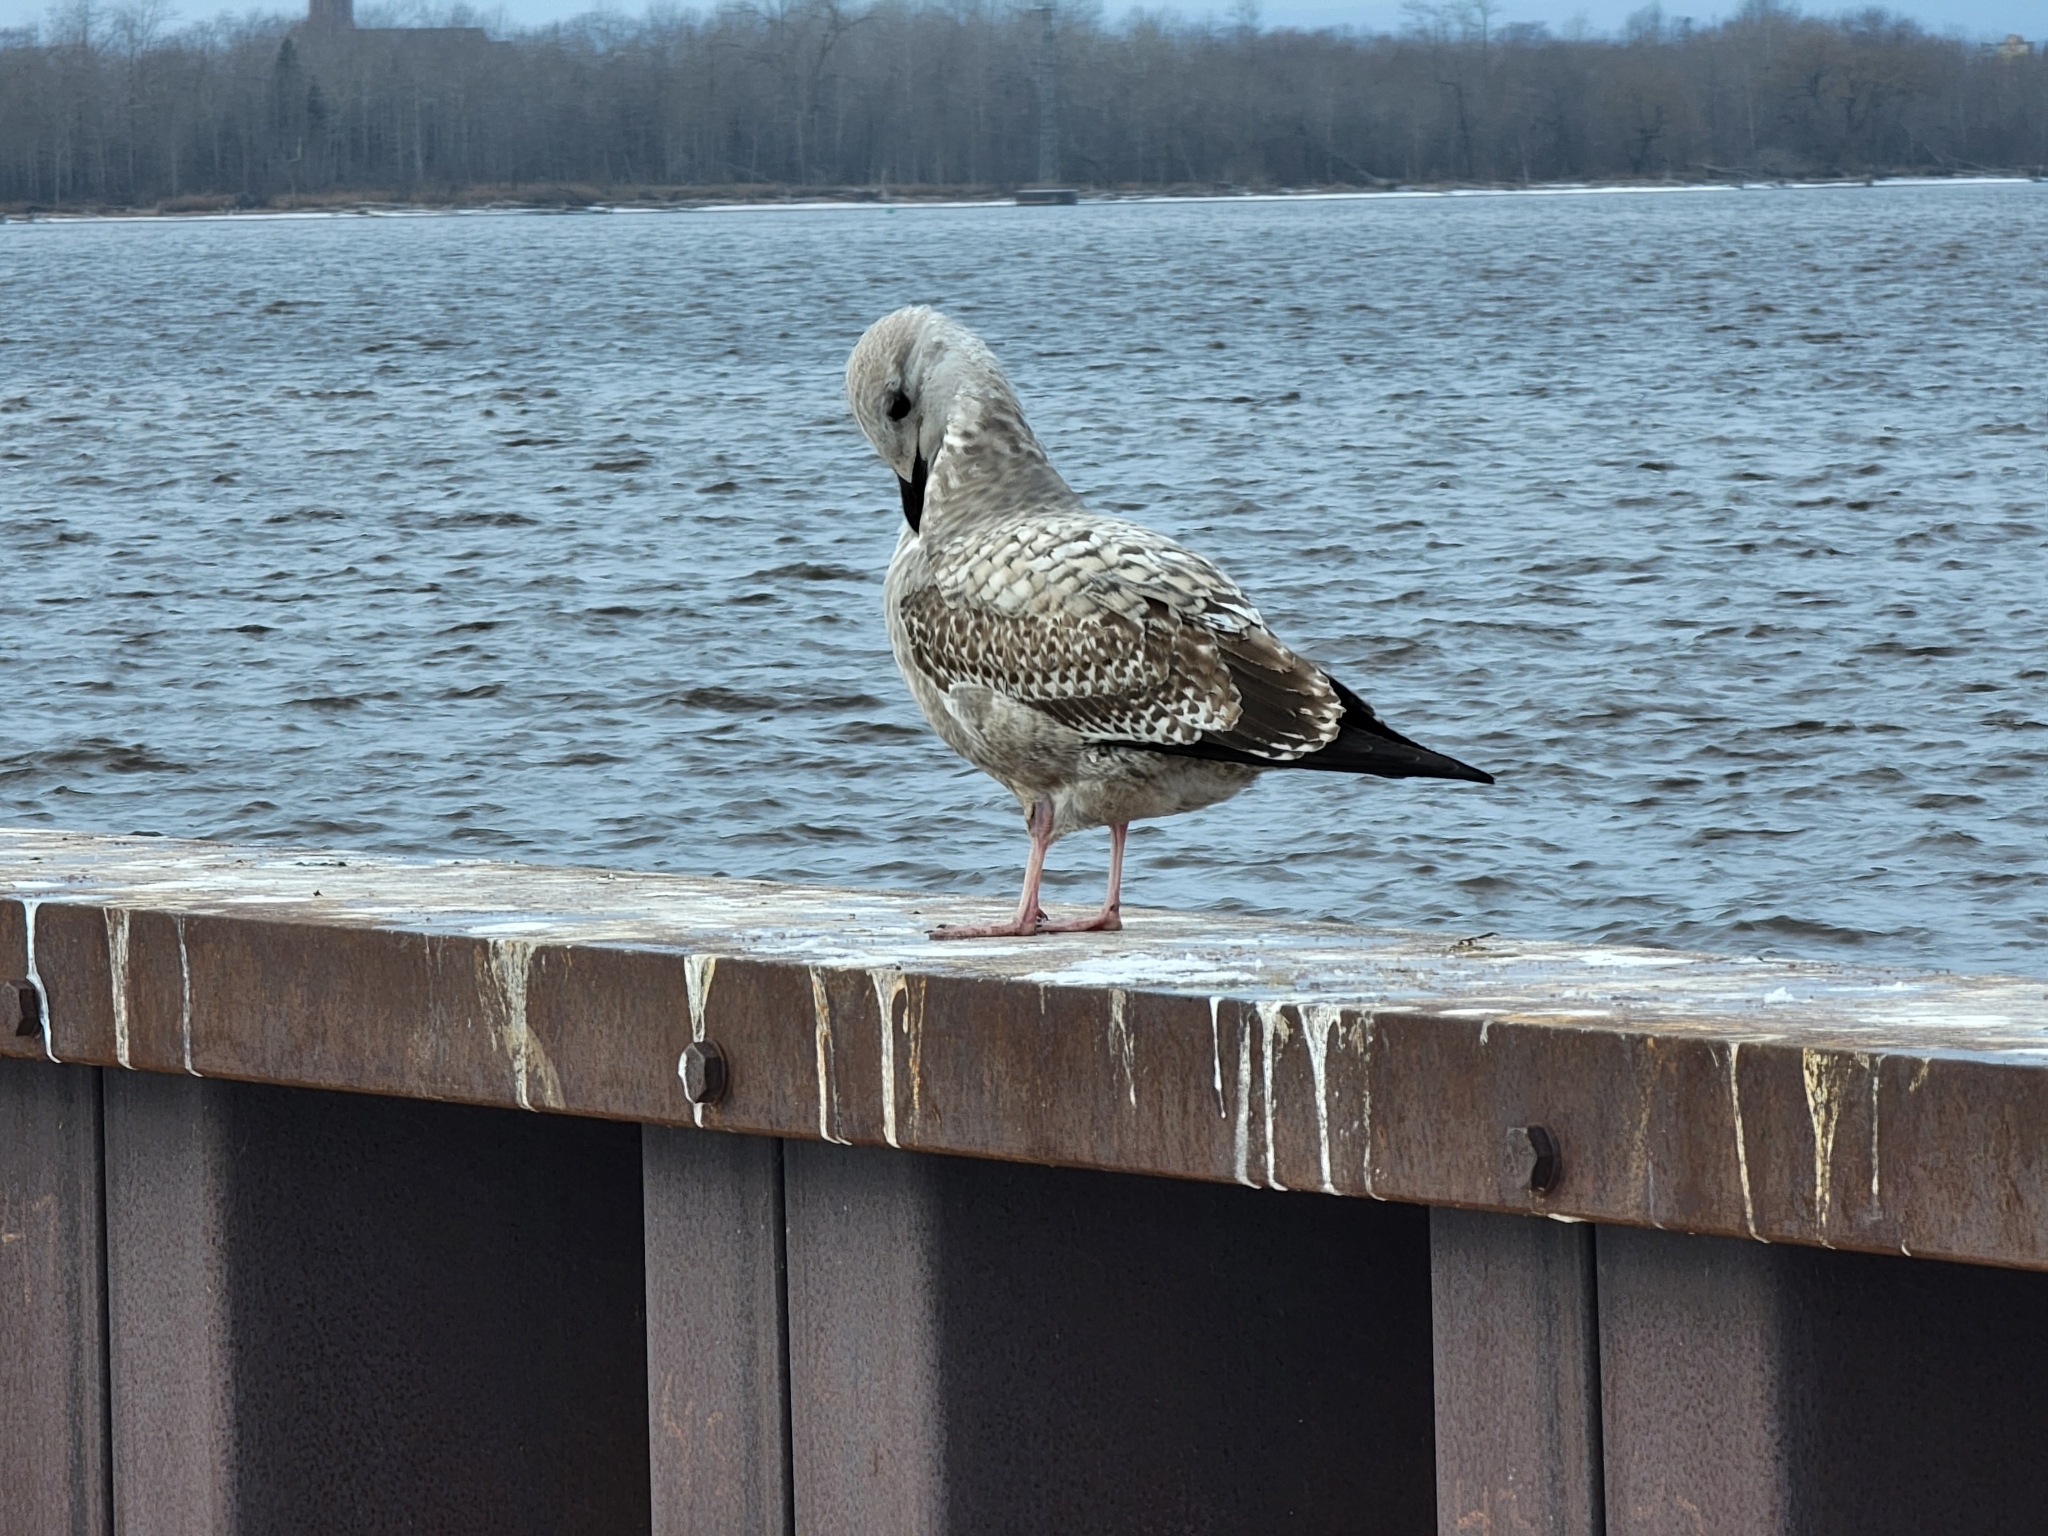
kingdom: Animalia
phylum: Chordata
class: Aves
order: Charadriiformes
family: Laridae
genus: Larus
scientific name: Larus argentatus
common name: Herring gull
